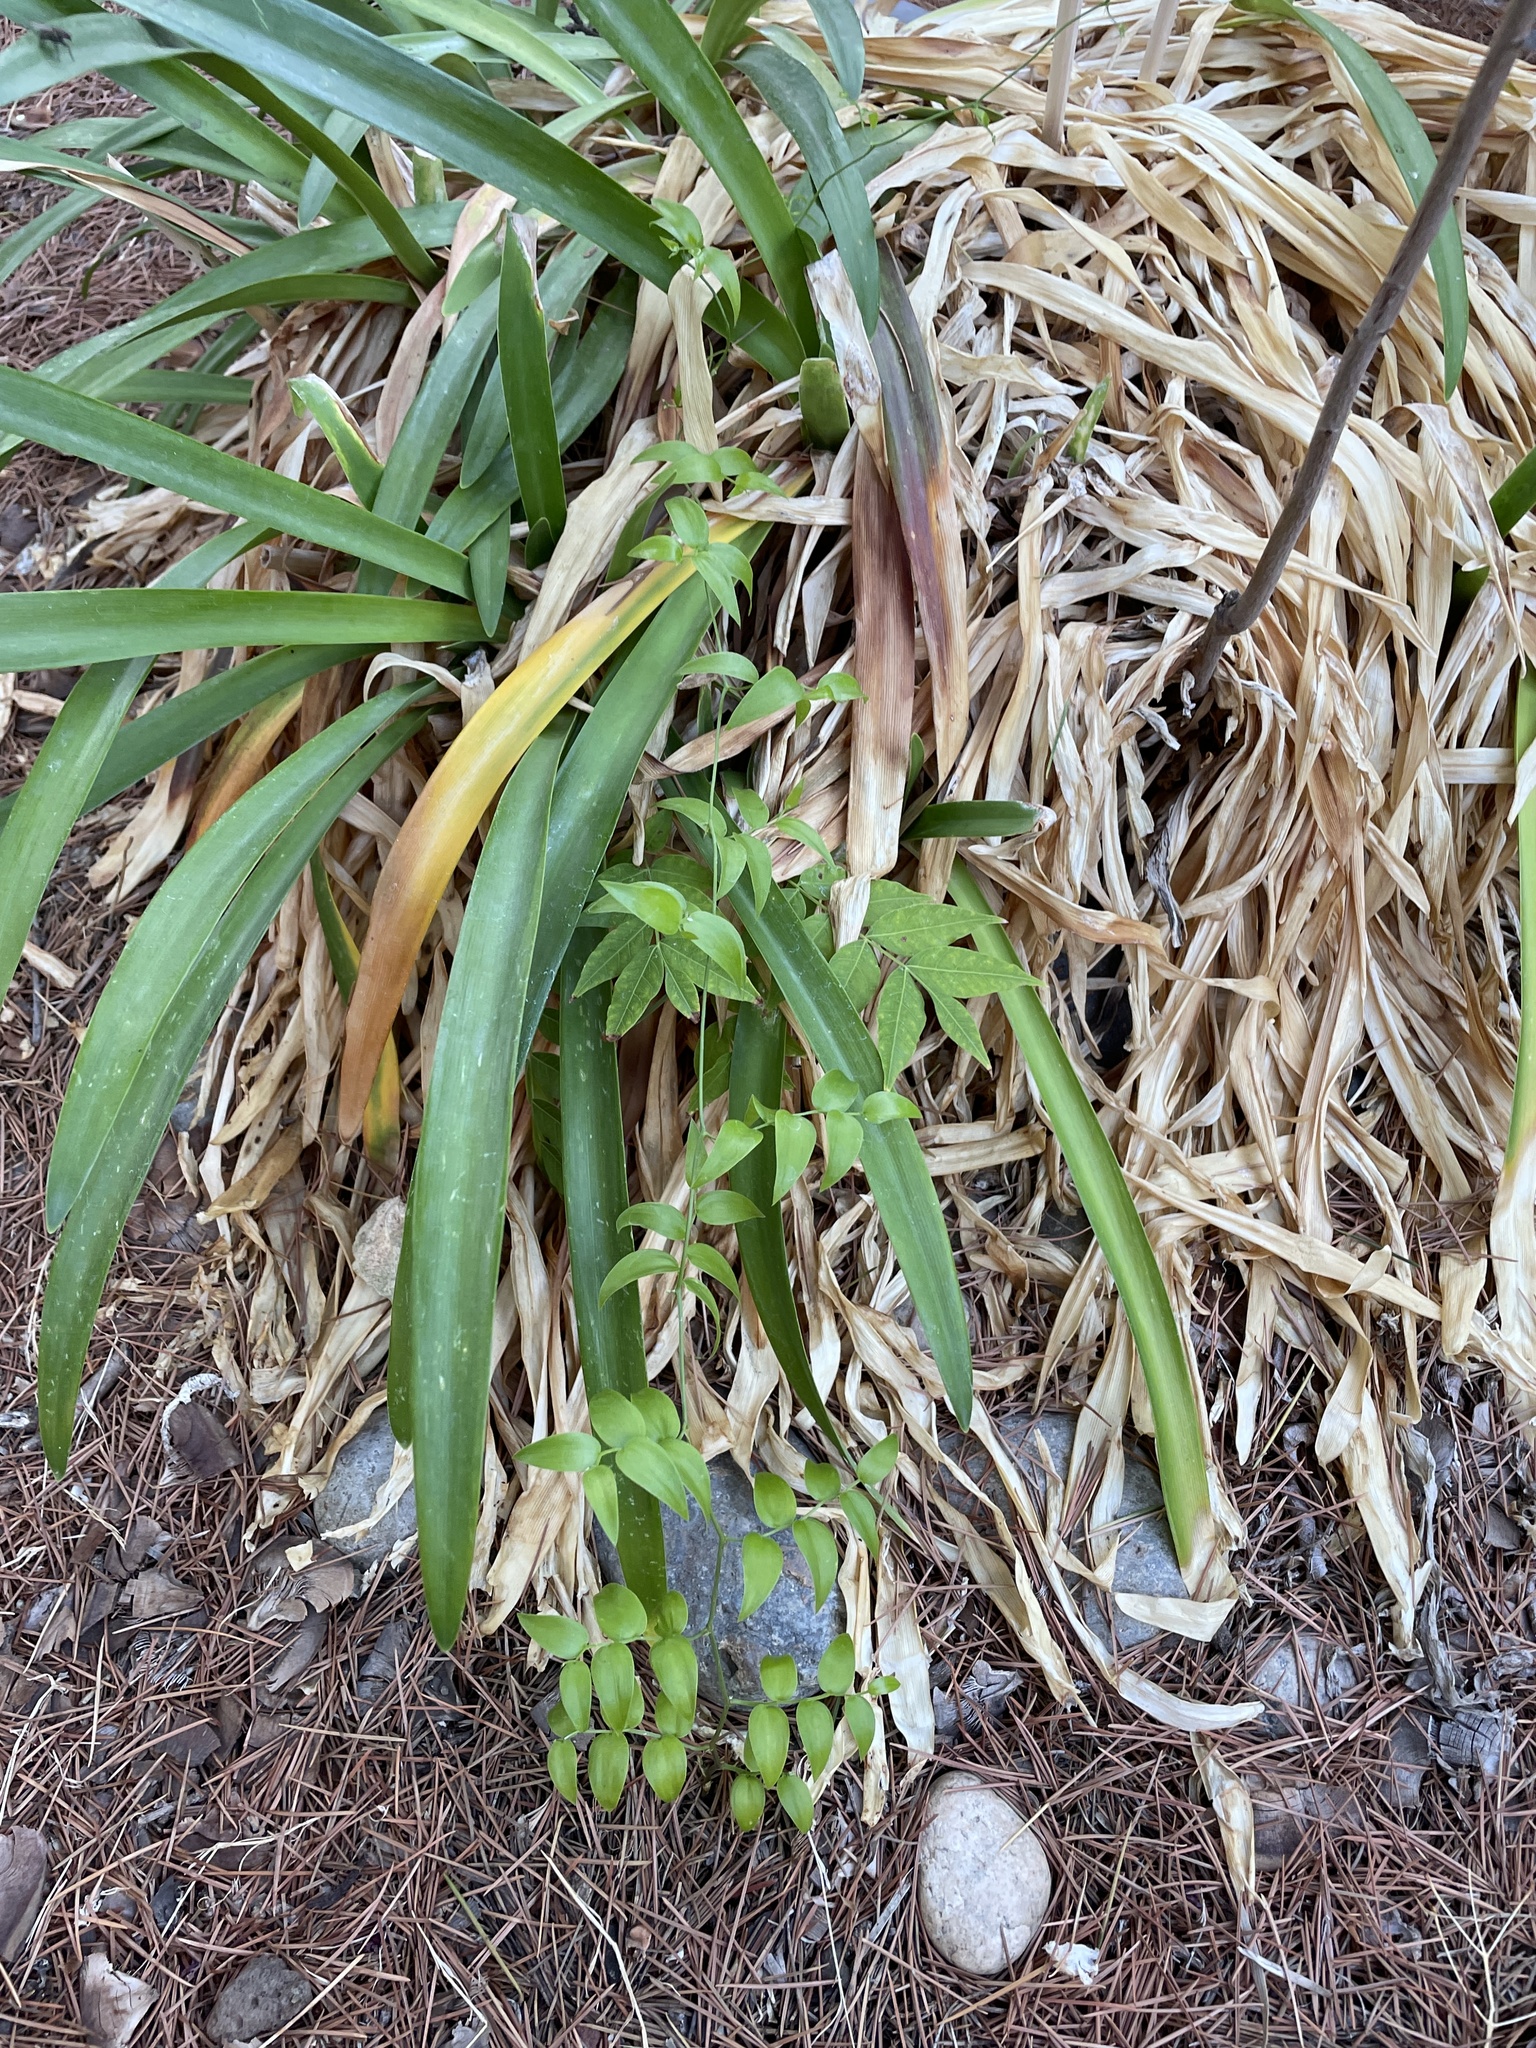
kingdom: Plantae
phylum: Tracheophyta
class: Liliopsida
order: Asparagales
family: Asparagaceae
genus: Asparagus
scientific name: Asparagus asparagoides
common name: African asparagus fern
